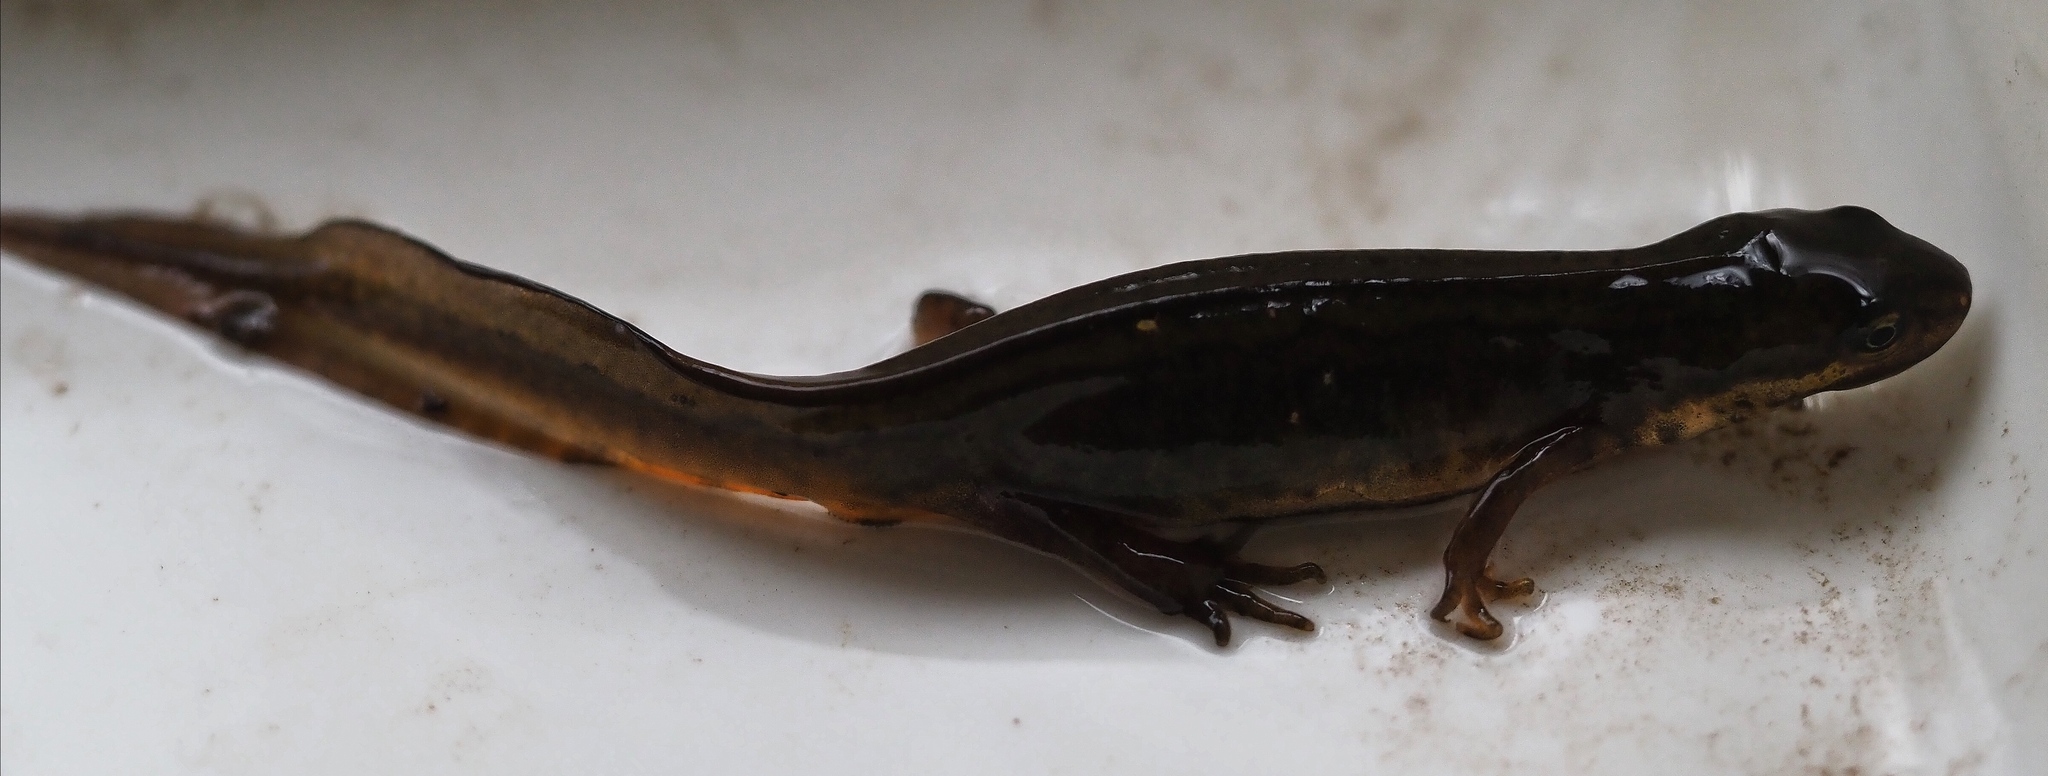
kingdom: Animalia
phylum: Chordata
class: Amphibia
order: Caudata
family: Salamandridae
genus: Lissotriton
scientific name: Lissotriton vulgaris
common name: Smooth newt
